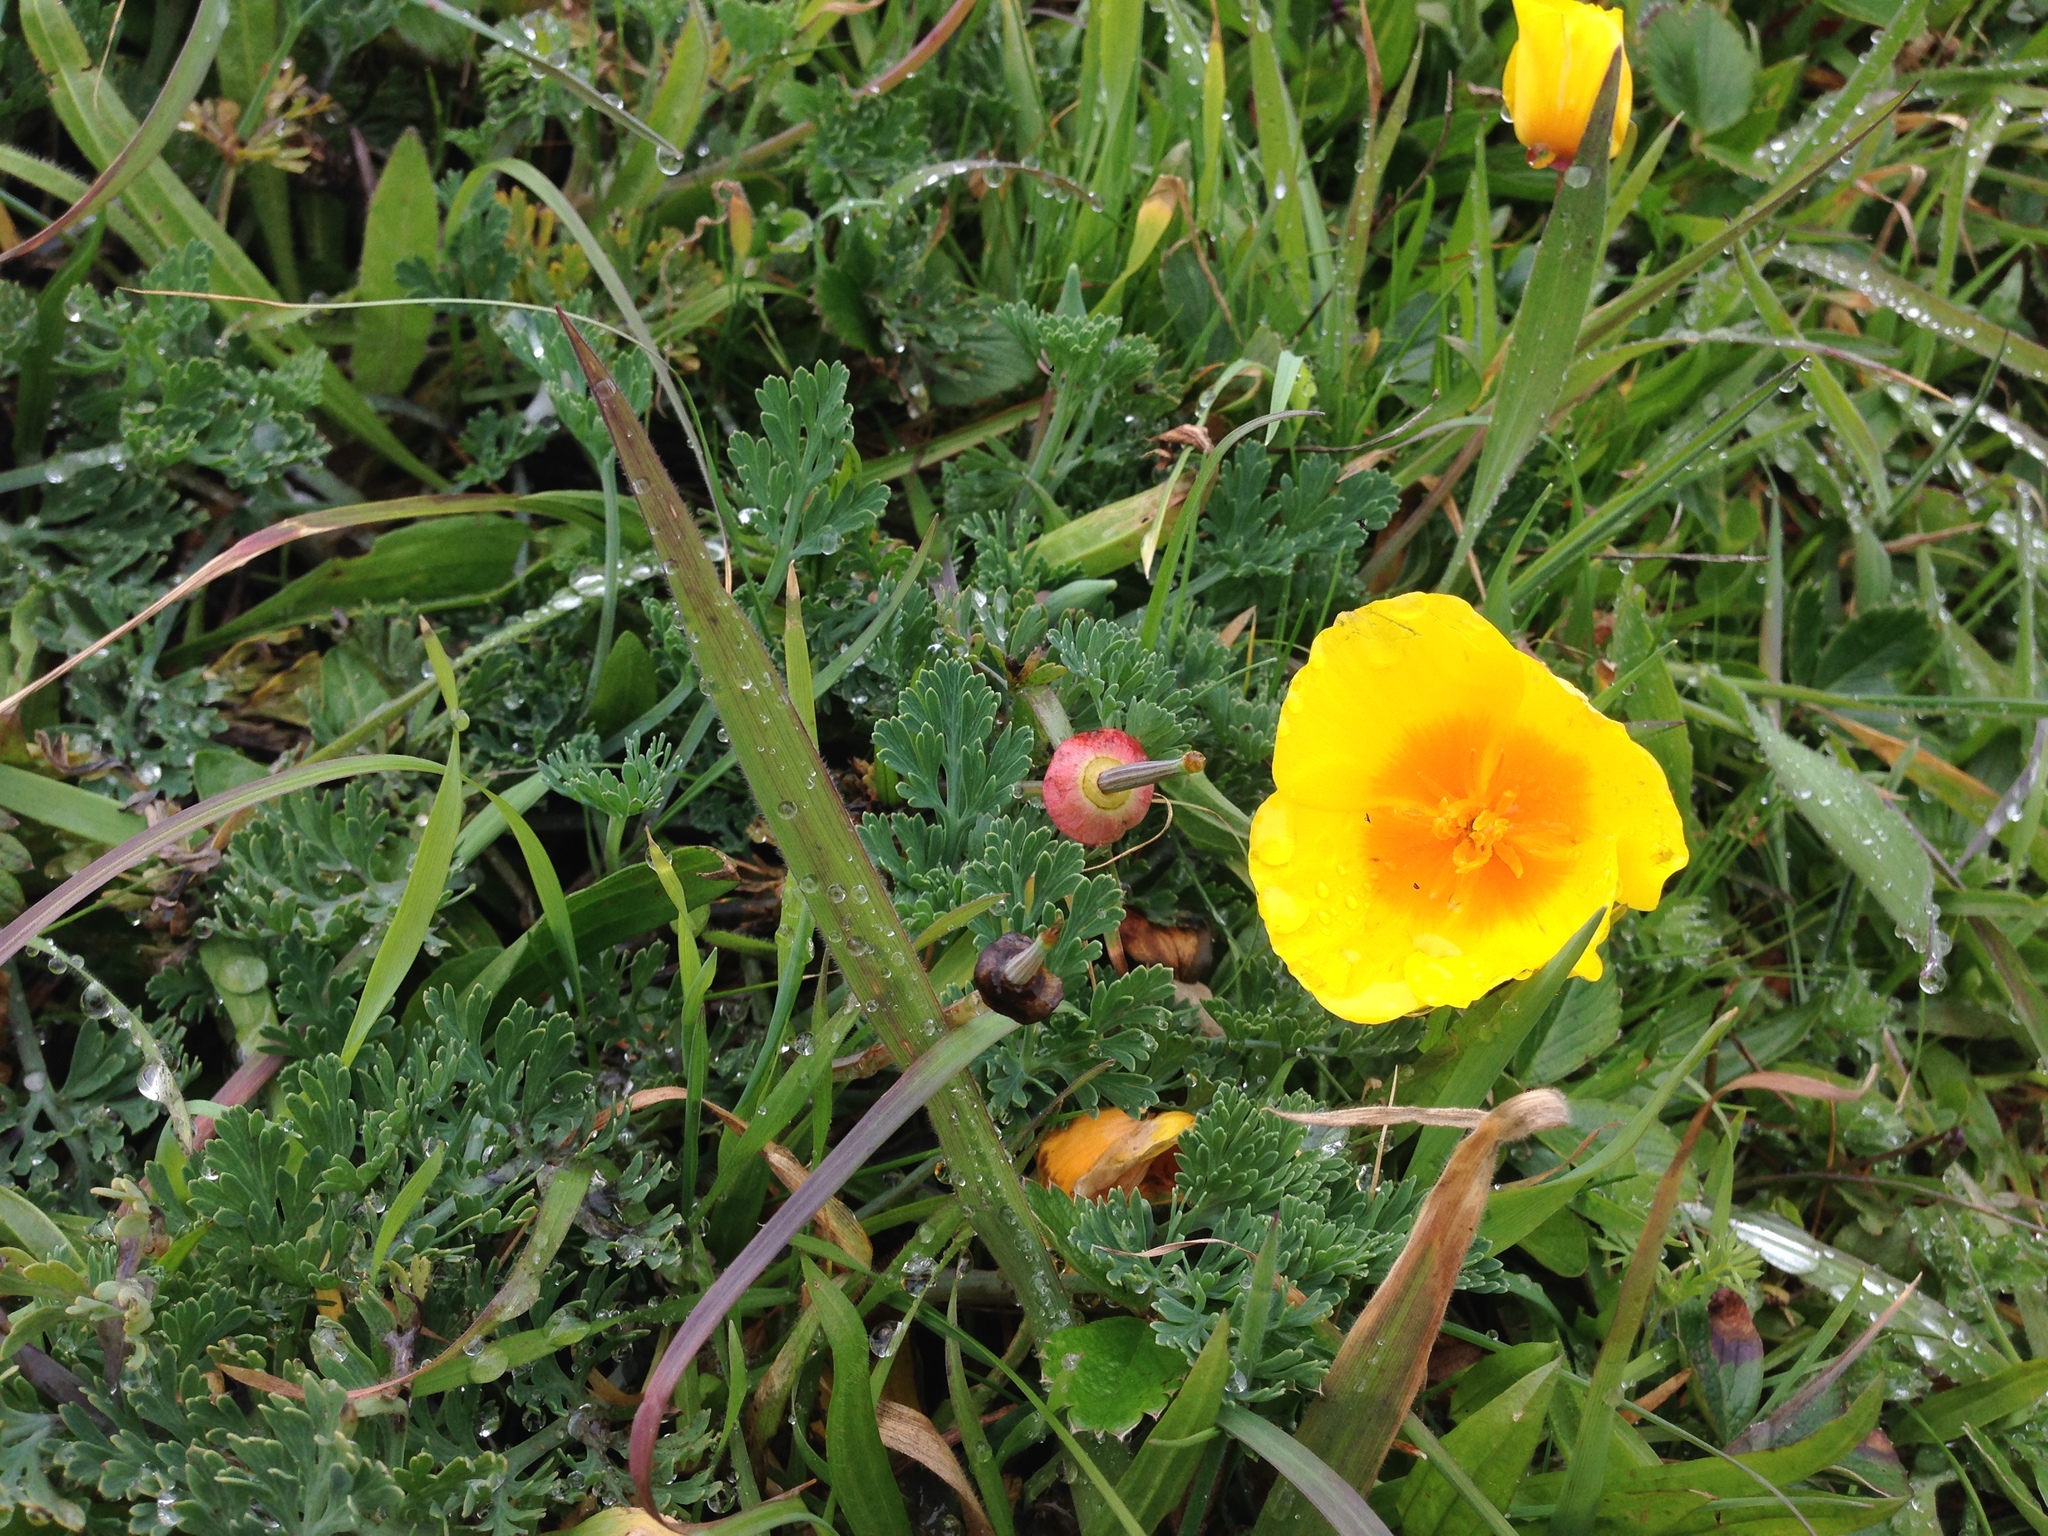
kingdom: Plantae
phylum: Tracheophyta
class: Magnoliopsida
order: Ranunculales
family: Papaveraceae
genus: Eschscholzia
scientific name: Eschscholzia californica
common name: California poppy
